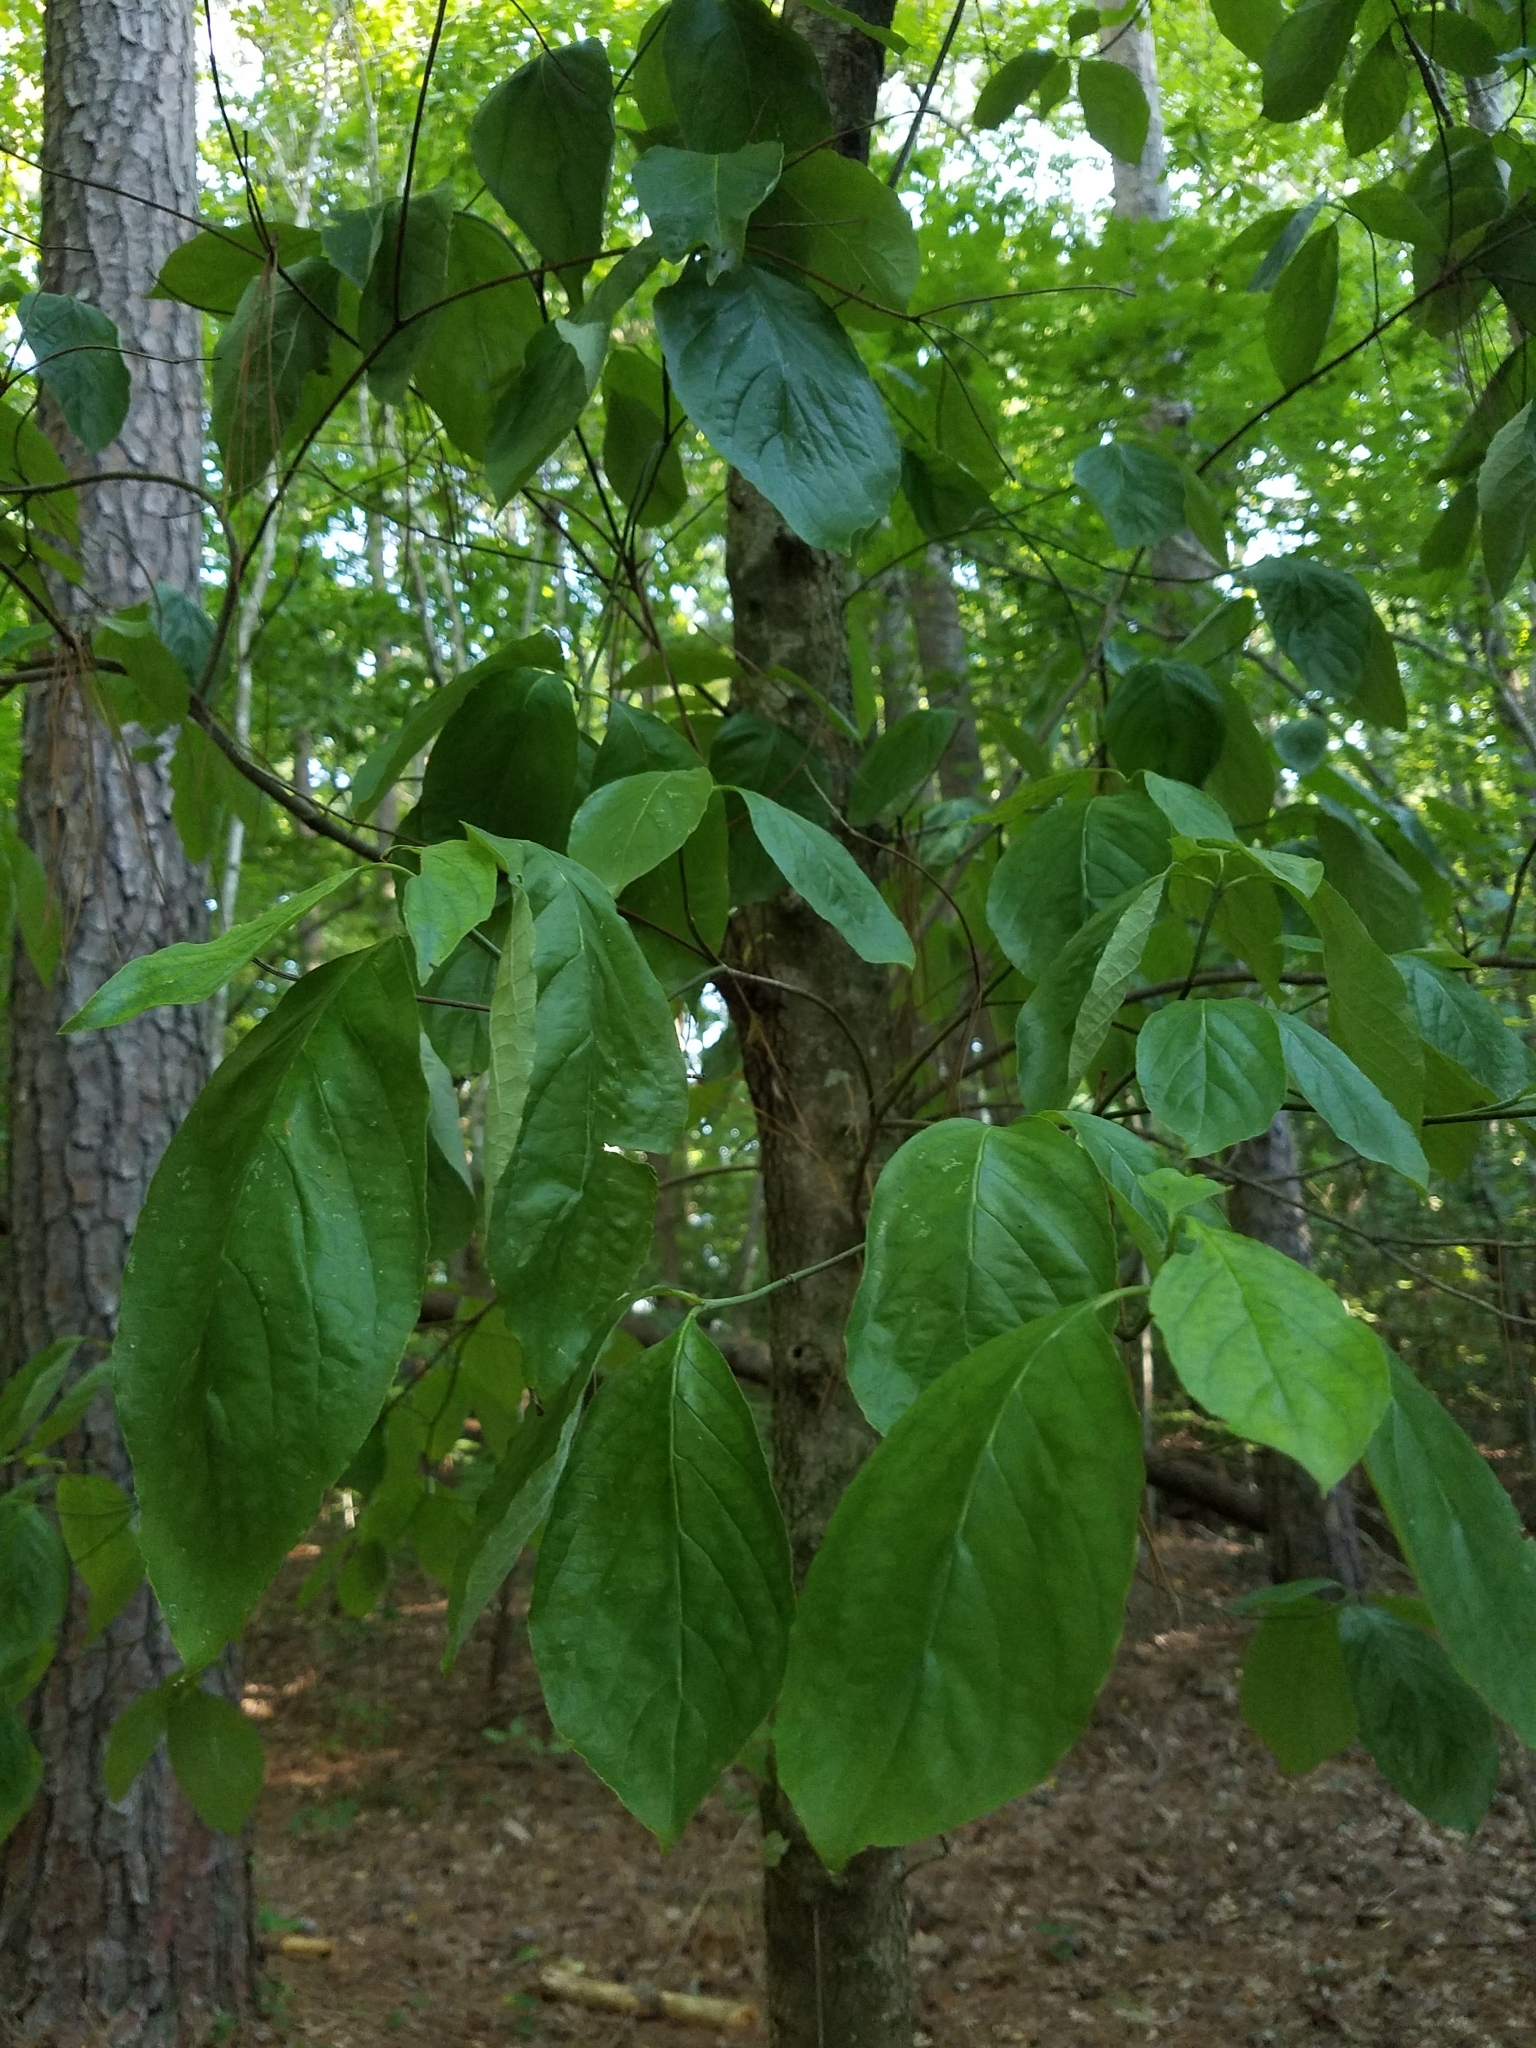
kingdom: Plantae
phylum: Tracheophyta
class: Magnoliopsida
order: Cornales
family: Cornaceae
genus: Cornus
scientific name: Cornus florida
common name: Flowering dogwood
